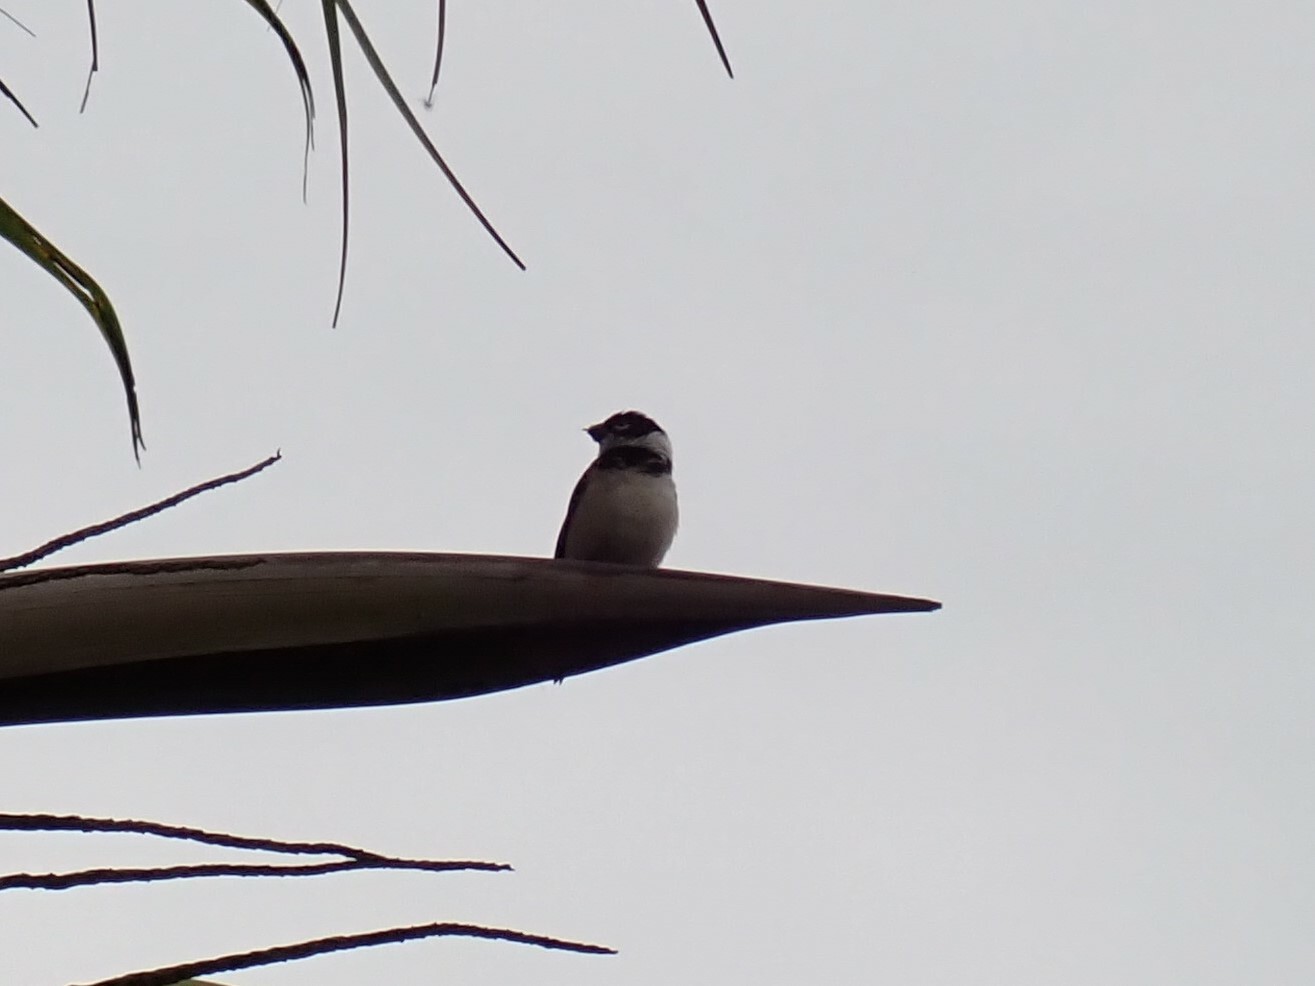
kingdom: Animalia
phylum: Chordata
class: Aves
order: Passeriformes
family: Thraupidae
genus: Sporophila
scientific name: Sporophila morelleti
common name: Morelet's seedeater
